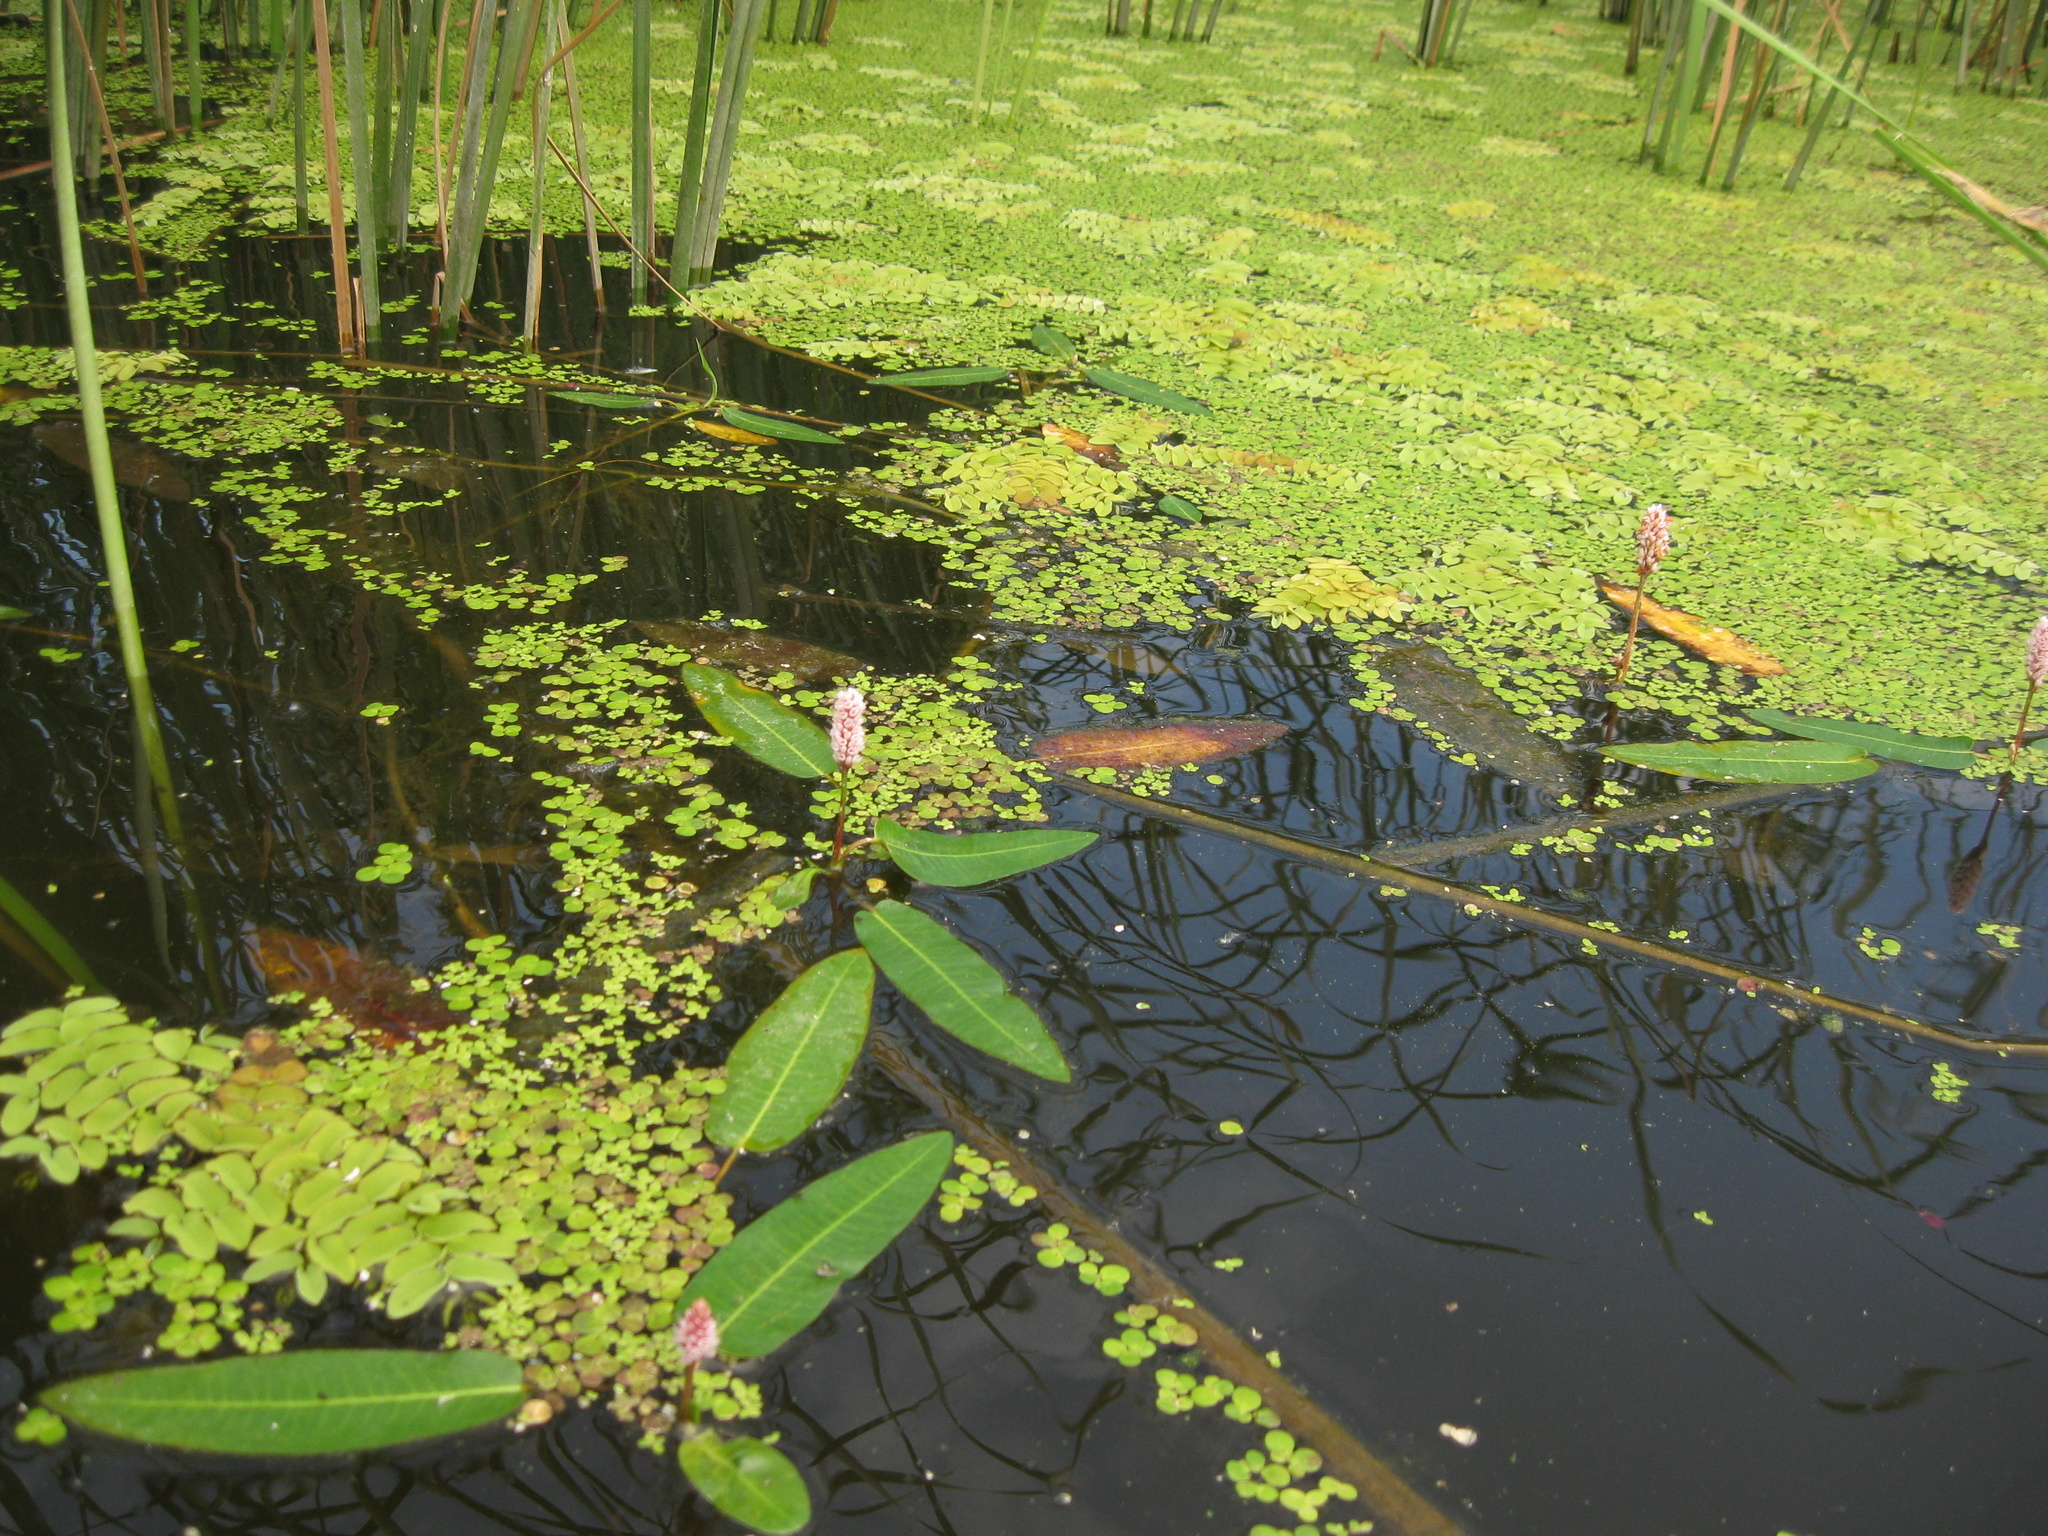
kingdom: Plantae
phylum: Tracheophyta
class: Magnoliopsida
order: Caryophyllales
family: Polygonaceae
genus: Persicaria
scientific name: Persicaria amphibia
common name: Amphibious bistort
